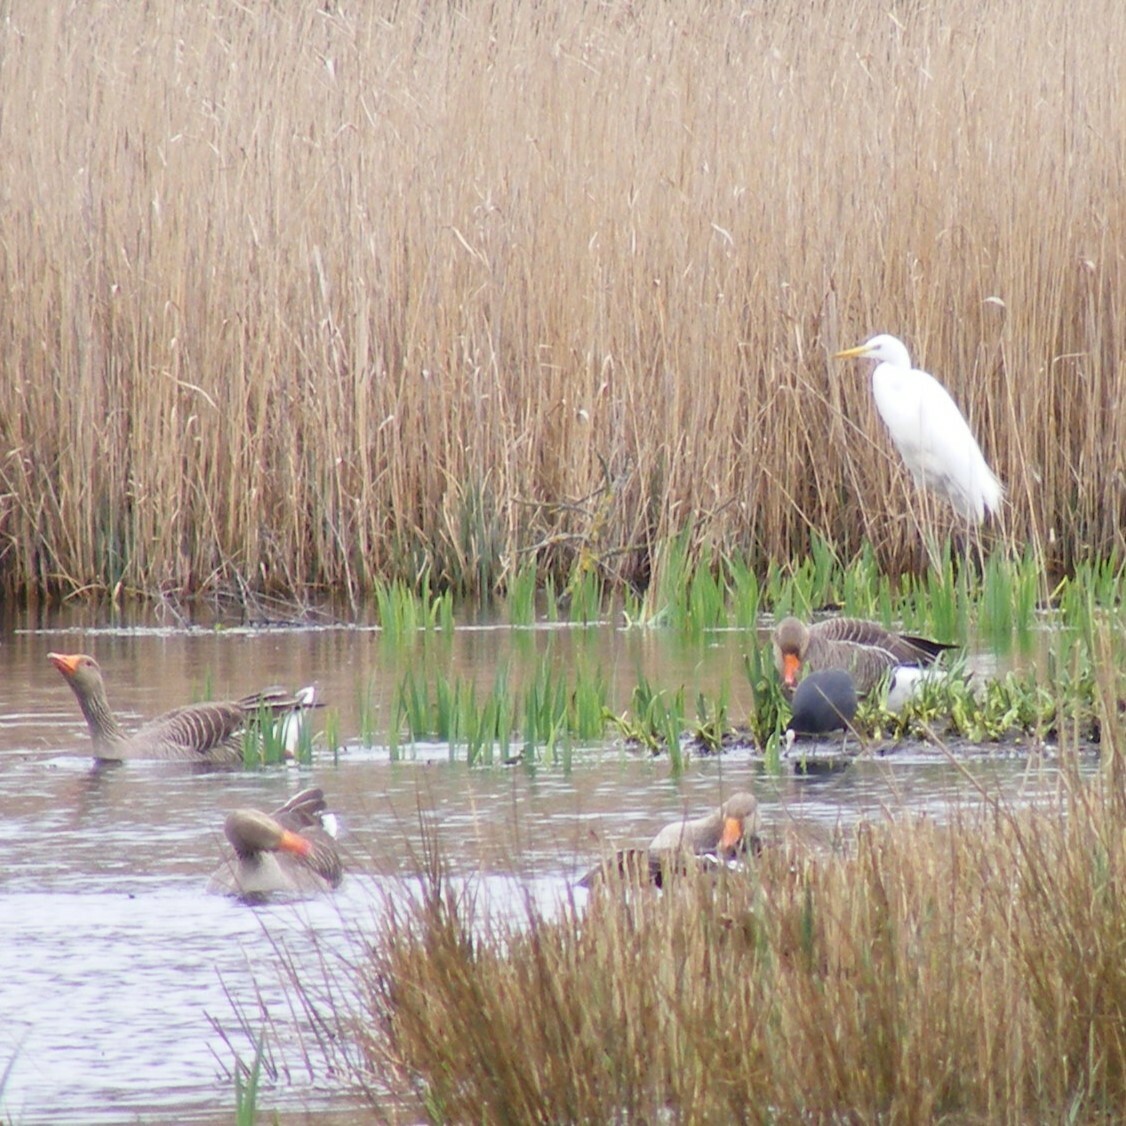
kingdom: Animalia
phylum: Chordata
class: Aves
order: Gruiformes
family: Rallidae
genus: Fulica
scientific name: Fulica atra
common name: Eurasian coot
